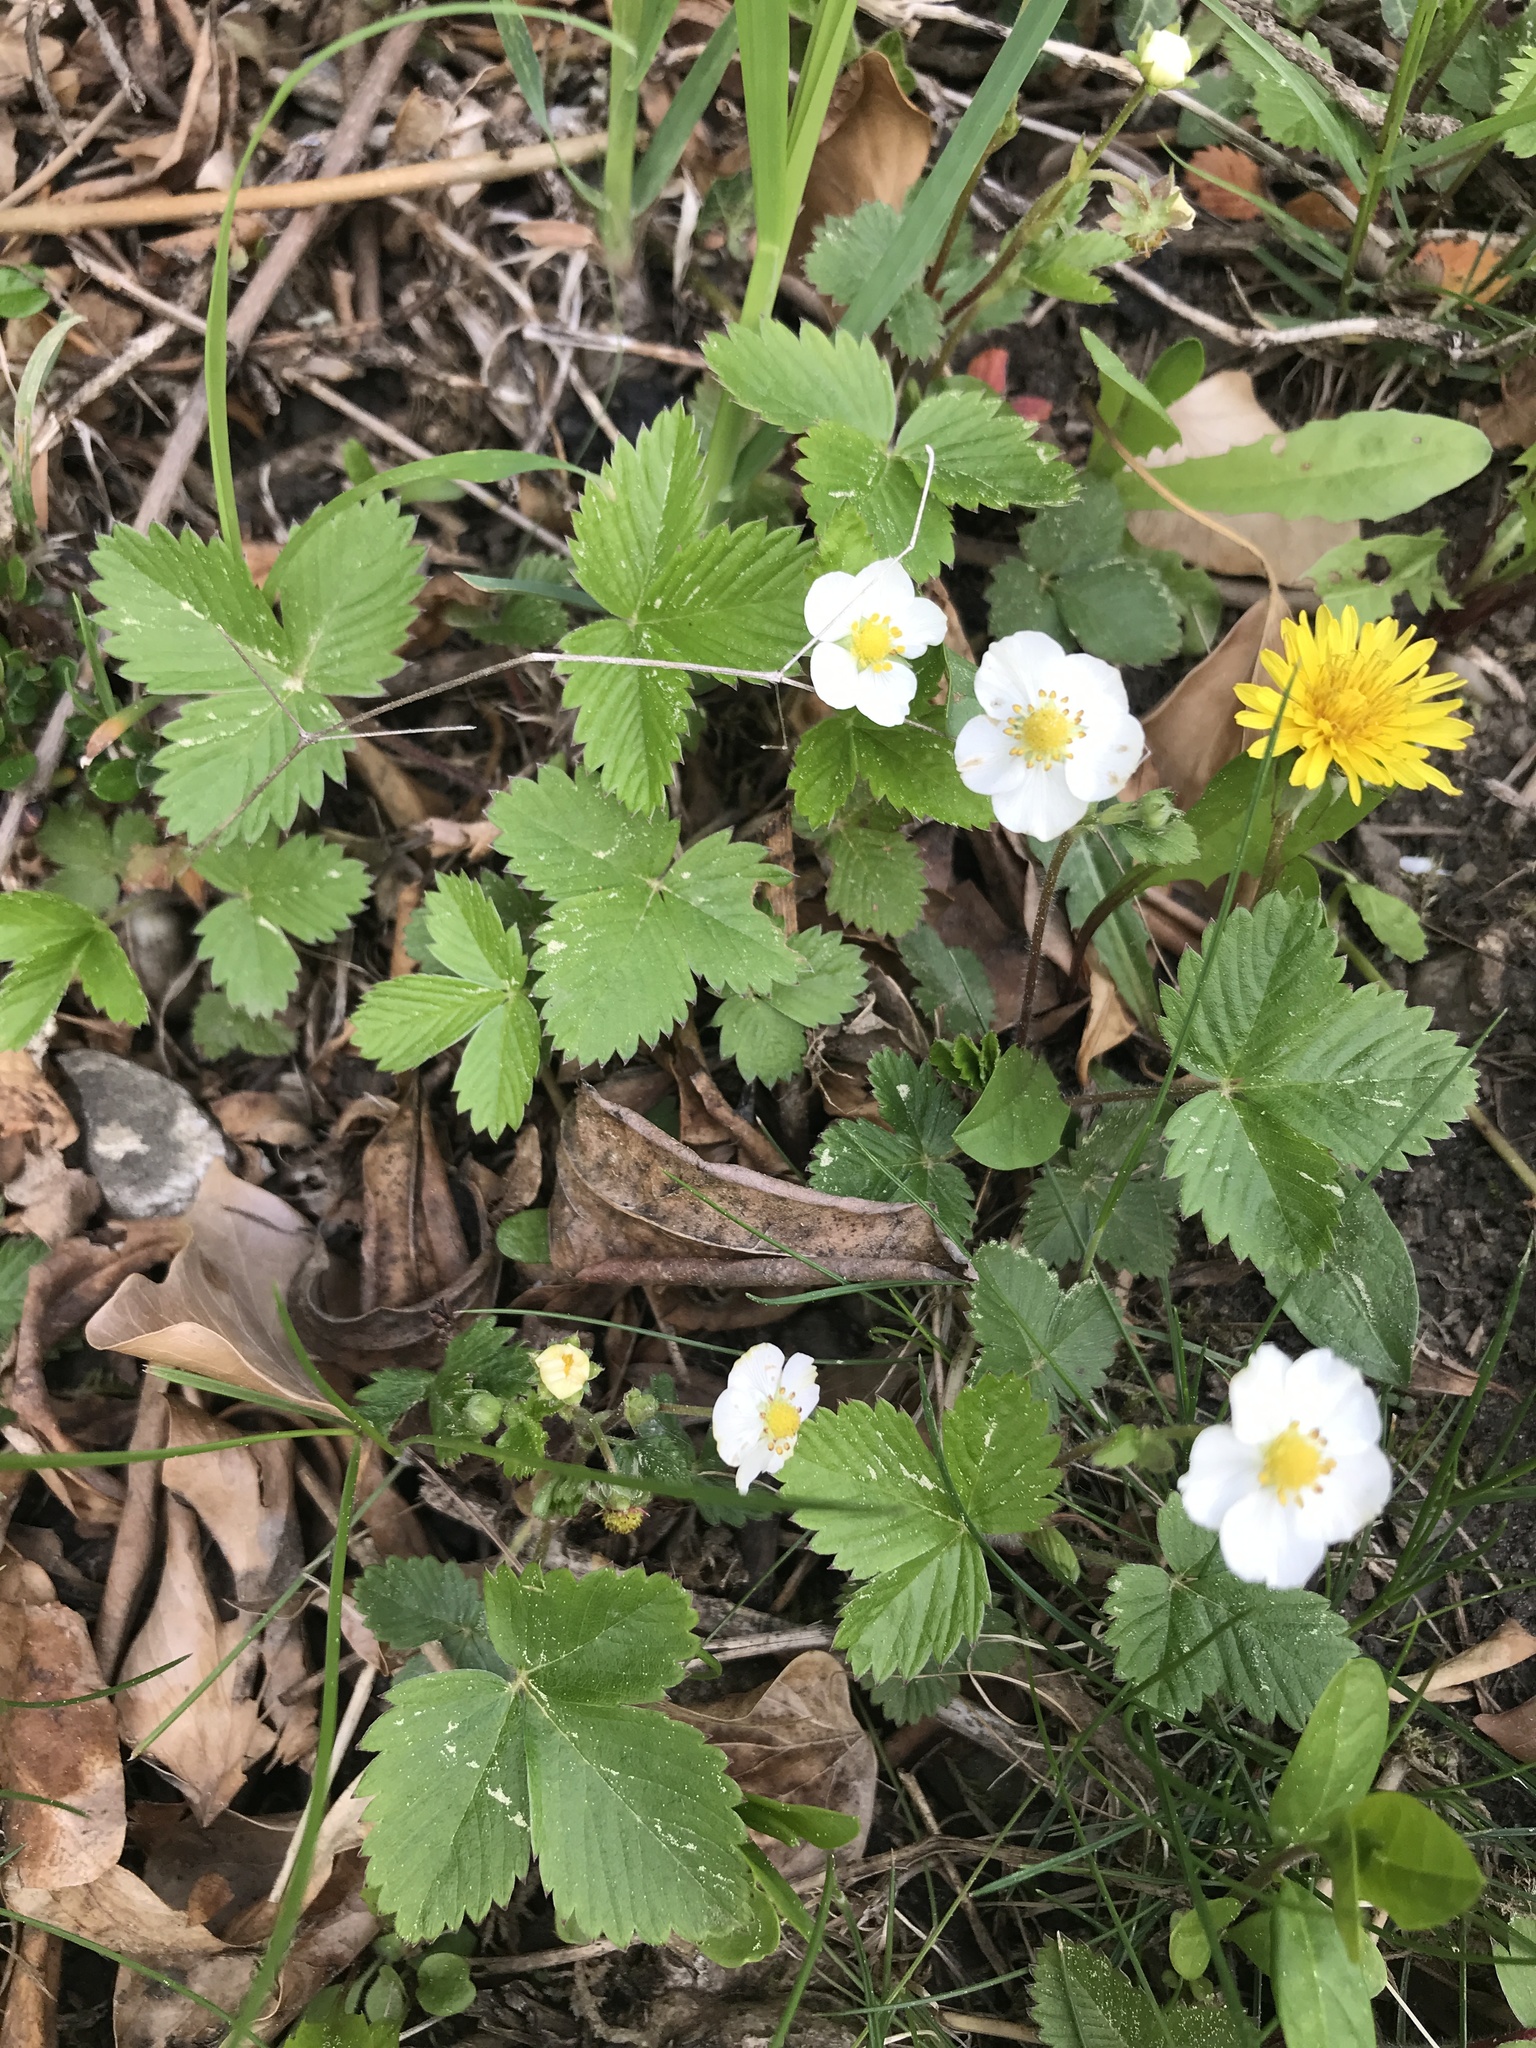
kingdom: Plantae
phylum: Tracheophyta
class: Magnoliopsida
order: Rosales
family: Rosaceae
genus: Fragaria
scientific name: Fragaria vesca
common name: Wild strawberry
